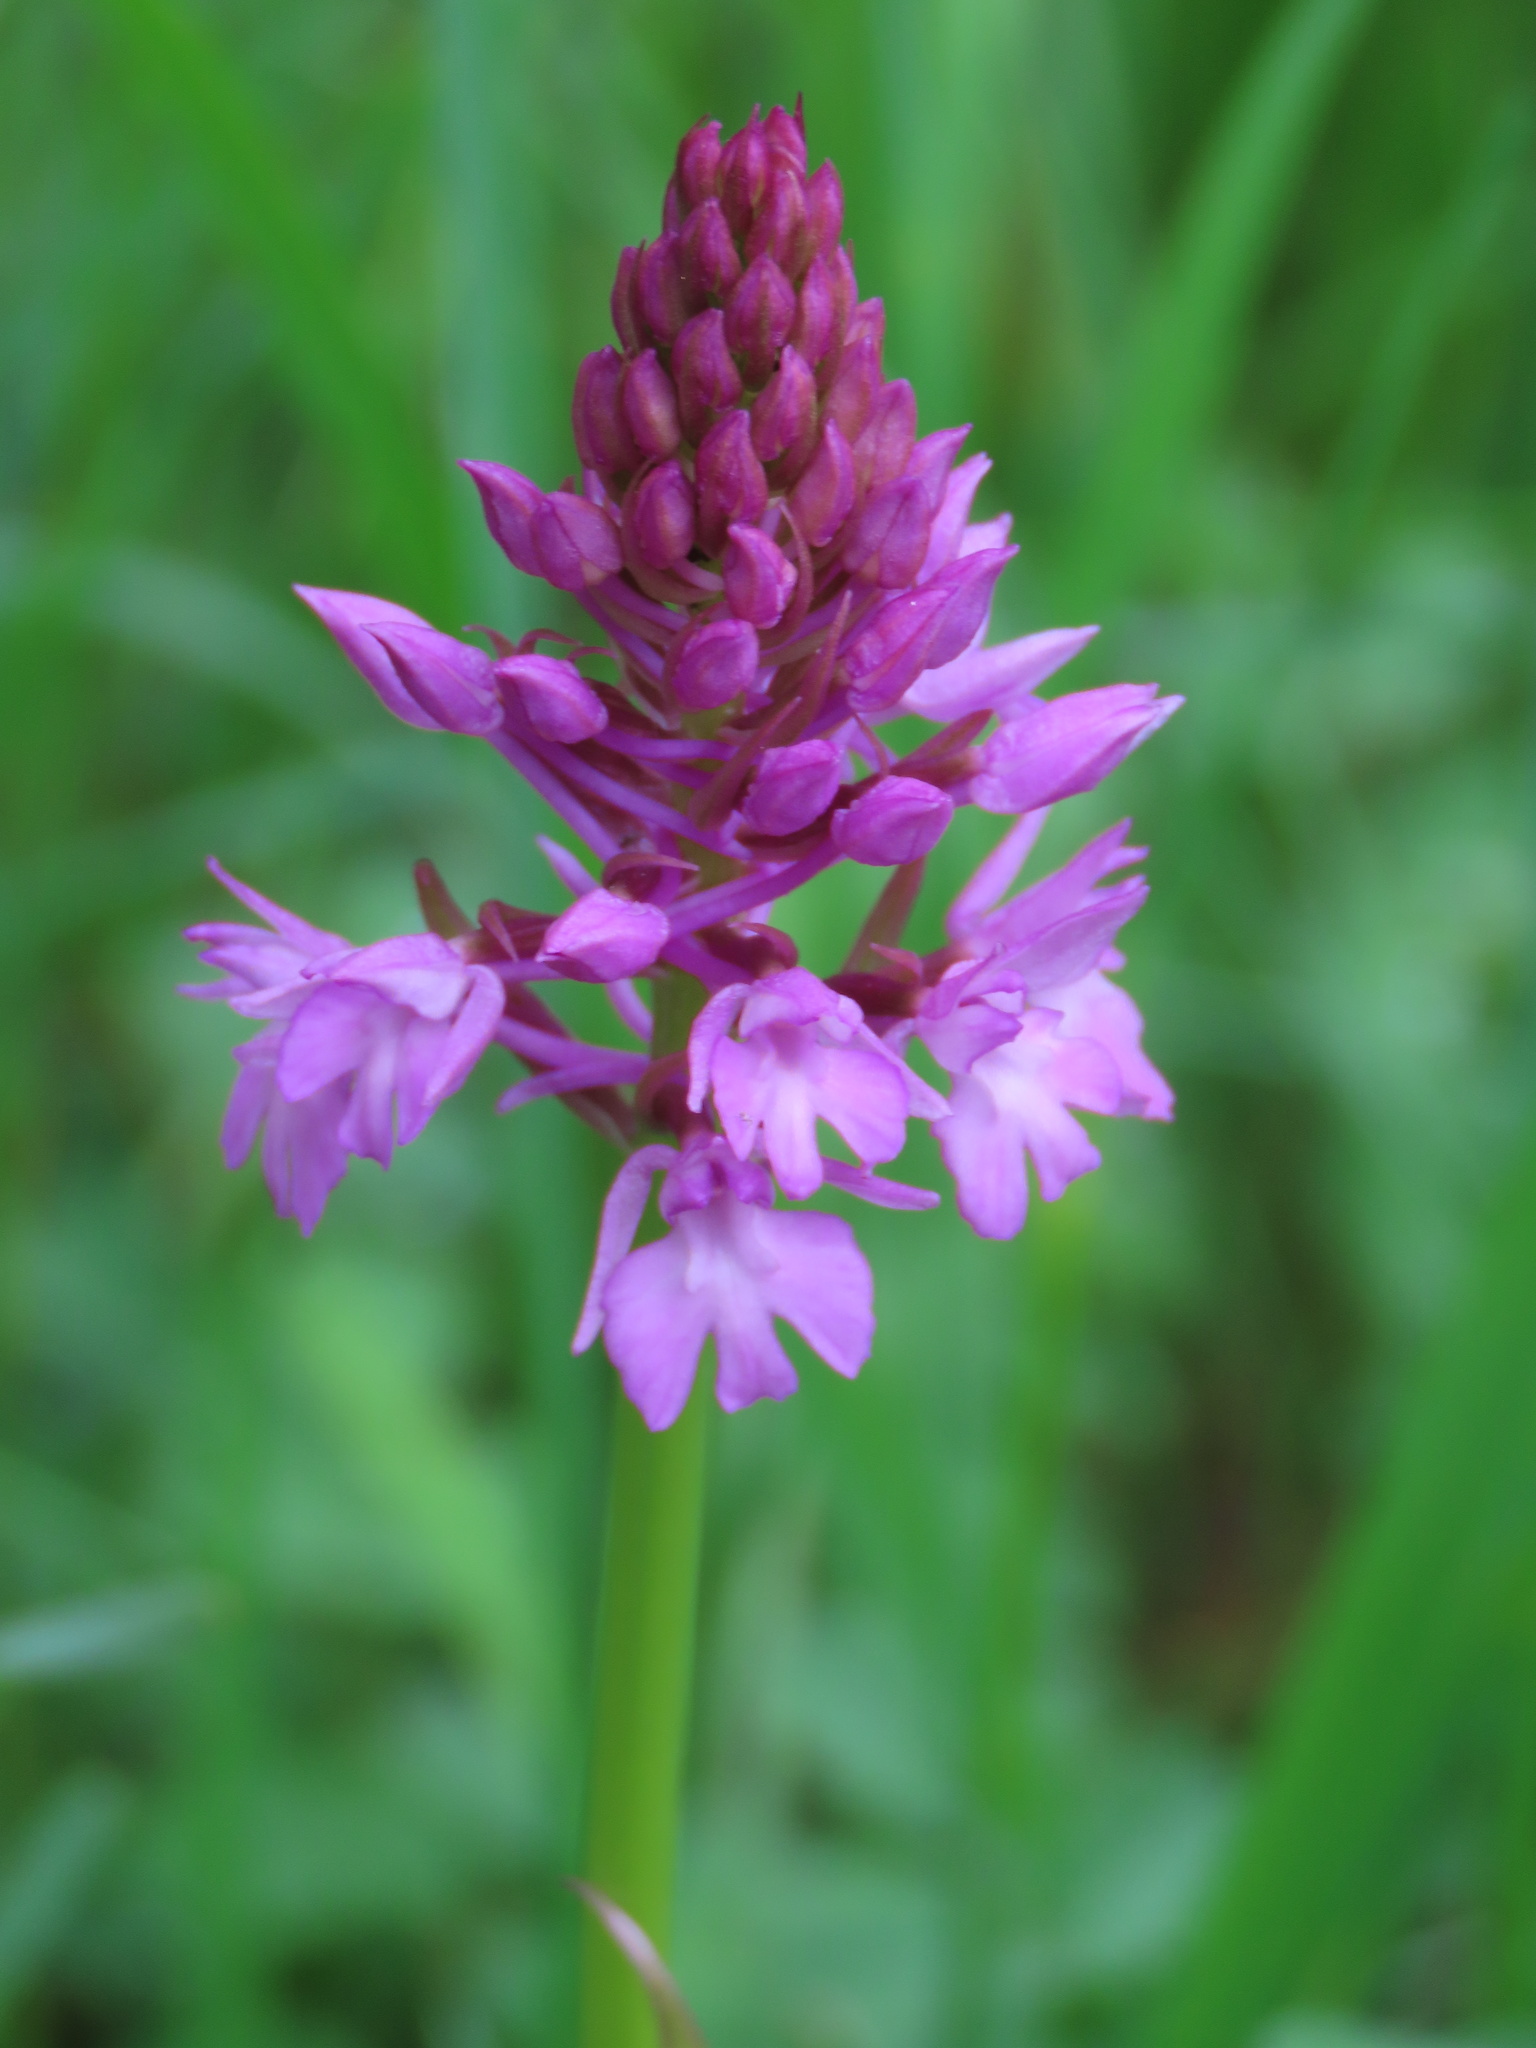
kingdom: Plantae
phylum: Tracheophyta
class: Liliopsida
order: Asparagales
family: Orchidaceae
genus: Anacamptis
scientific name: Anacamptis pyramidalis
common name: Pyramidal orchid
